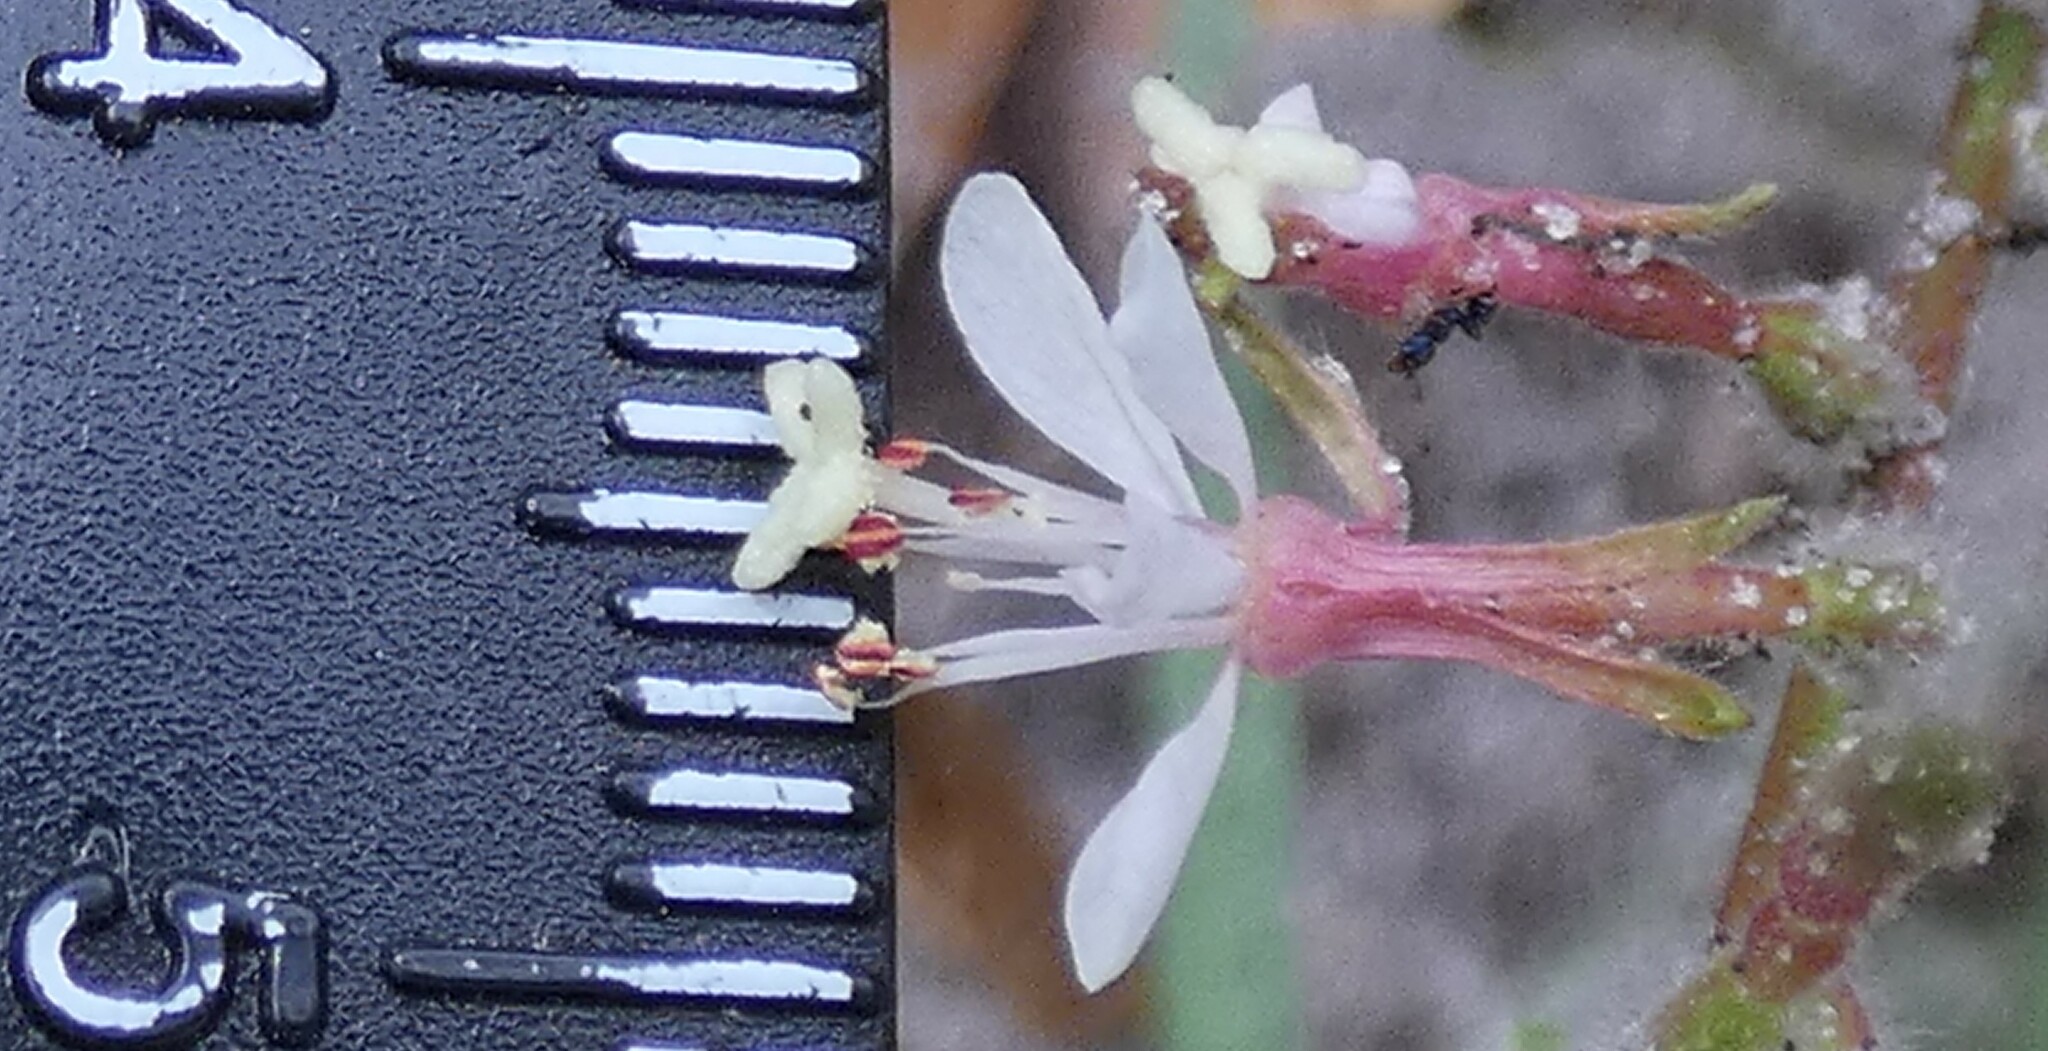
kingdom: Plantae
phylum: Tracheophyta
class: Magnoliopsida
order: Myrtales
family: Onagraceae
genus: Oenothera
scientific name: Oenothera simulans
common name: Southern beeblossom
